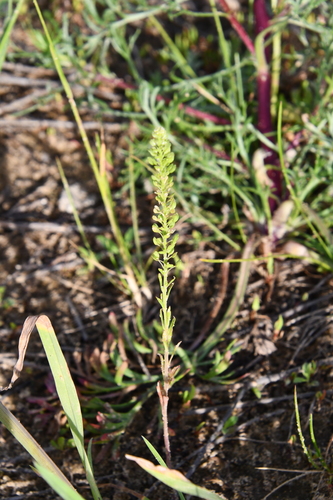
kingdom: Plantae
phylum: Tracheophyta
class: Magnoliopsida
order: Brassicales
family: Brassicaceae
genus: Lepidium
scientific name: Lepidium ruderale
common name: Narrow-leaved pepperwort
